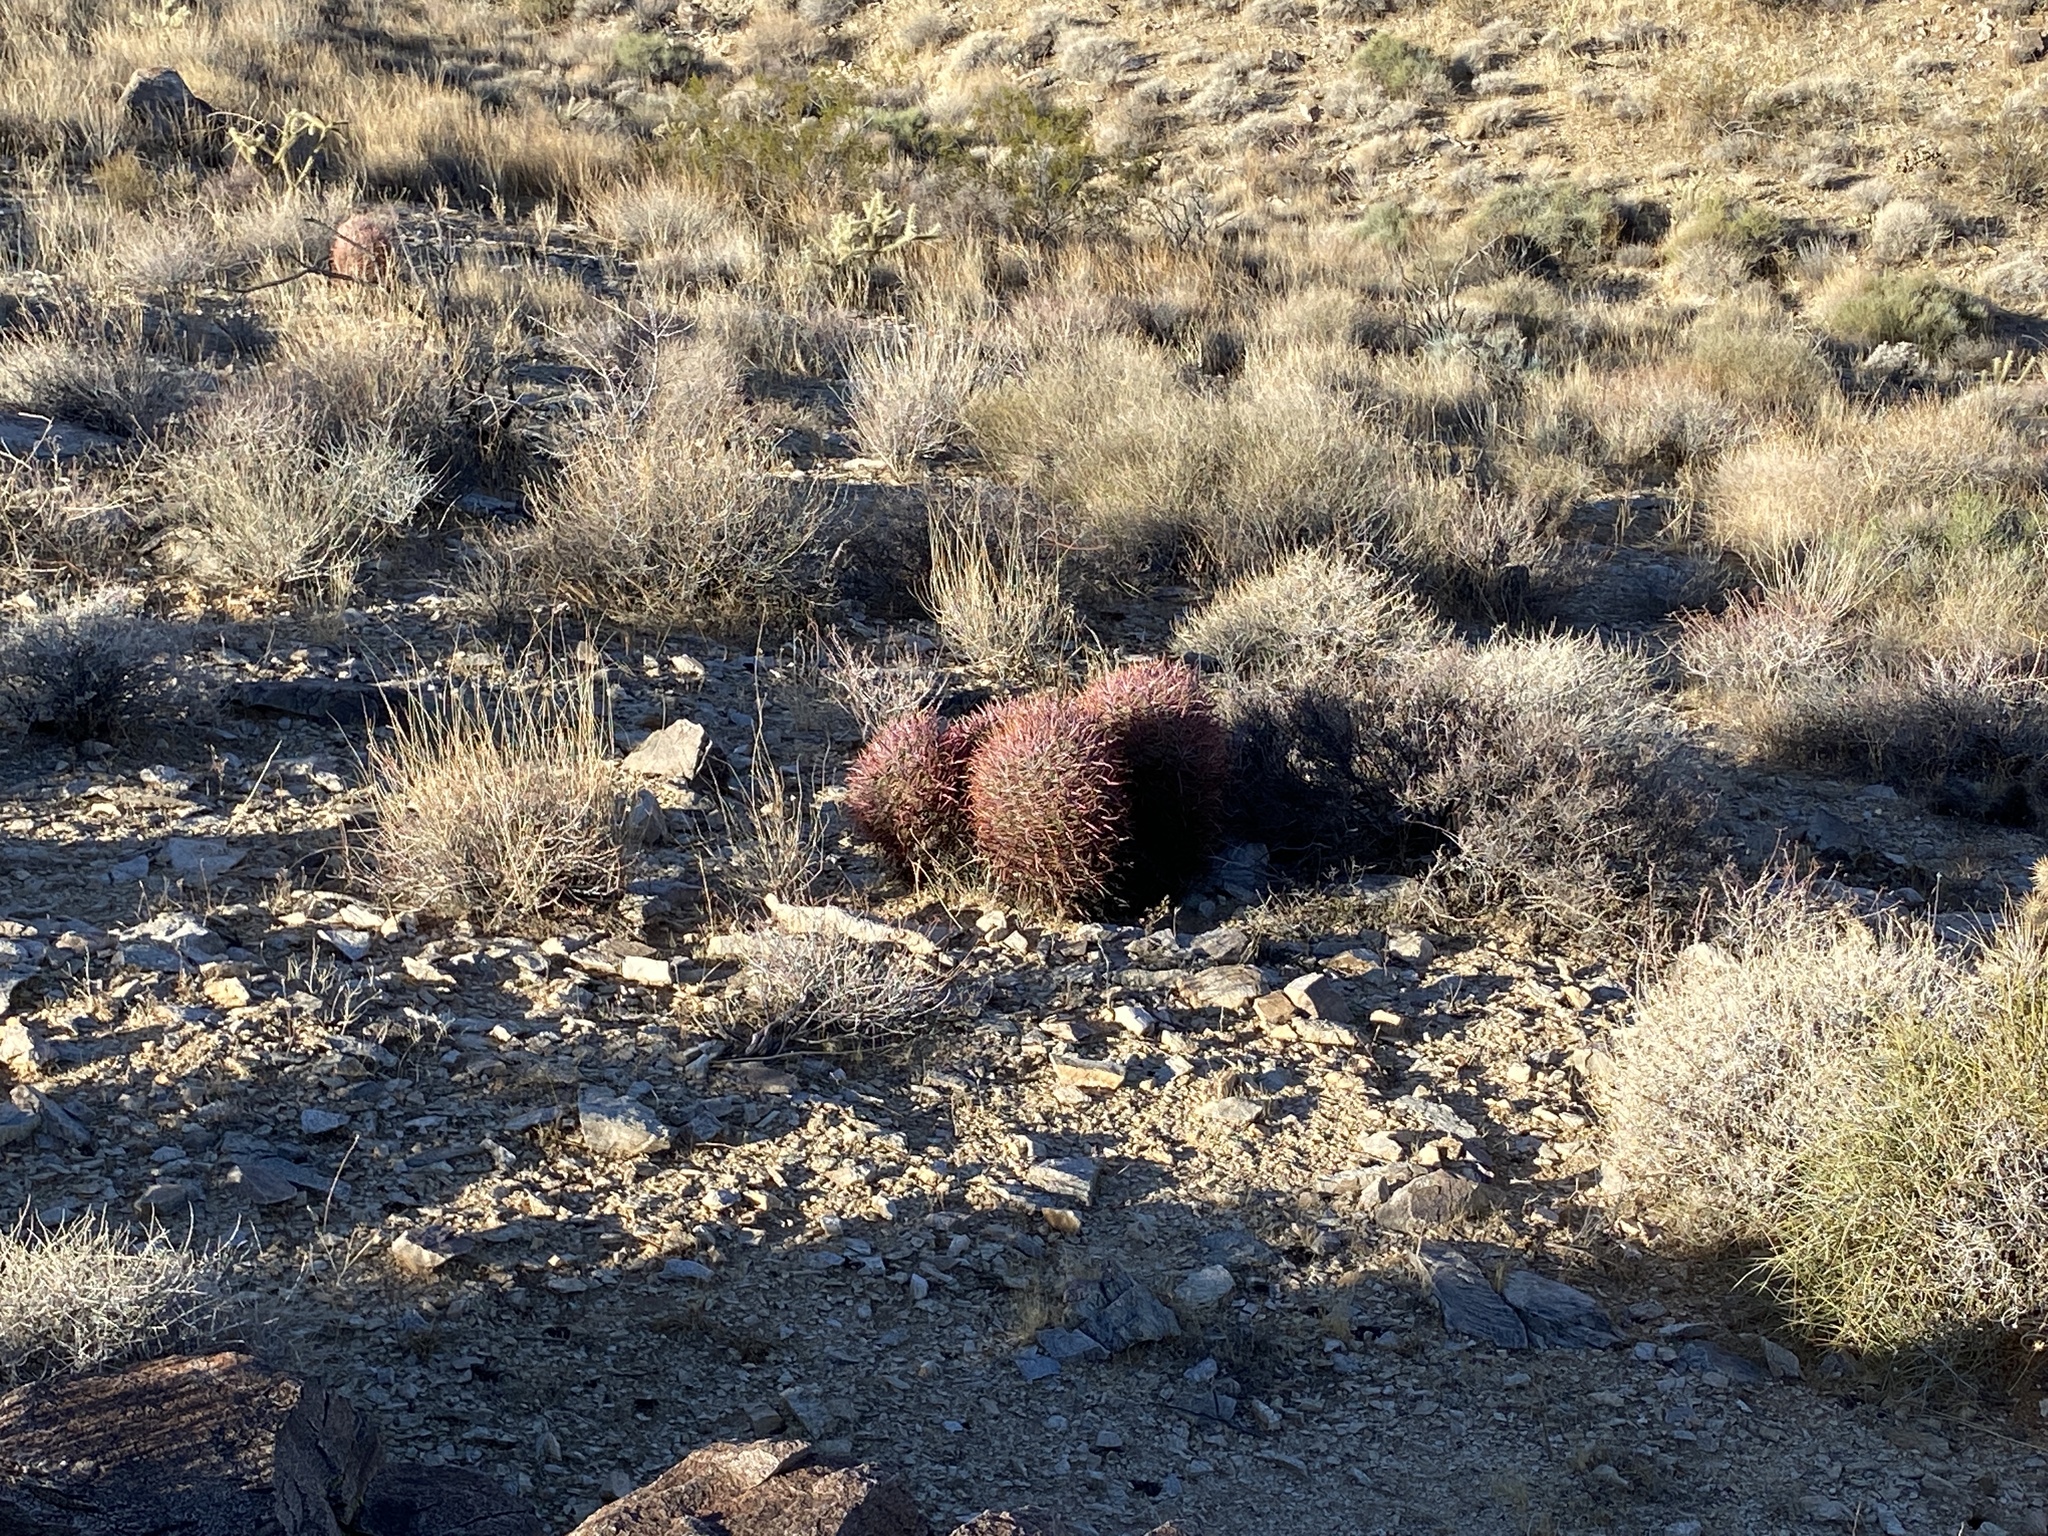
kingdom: Plantae
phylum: Tracheophyta
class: Magnoliopsida
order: Caryophyllales
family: Cactaceae
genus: Ferocactus
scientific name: Ferocactus cylindraceus
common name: California barrel cactus
